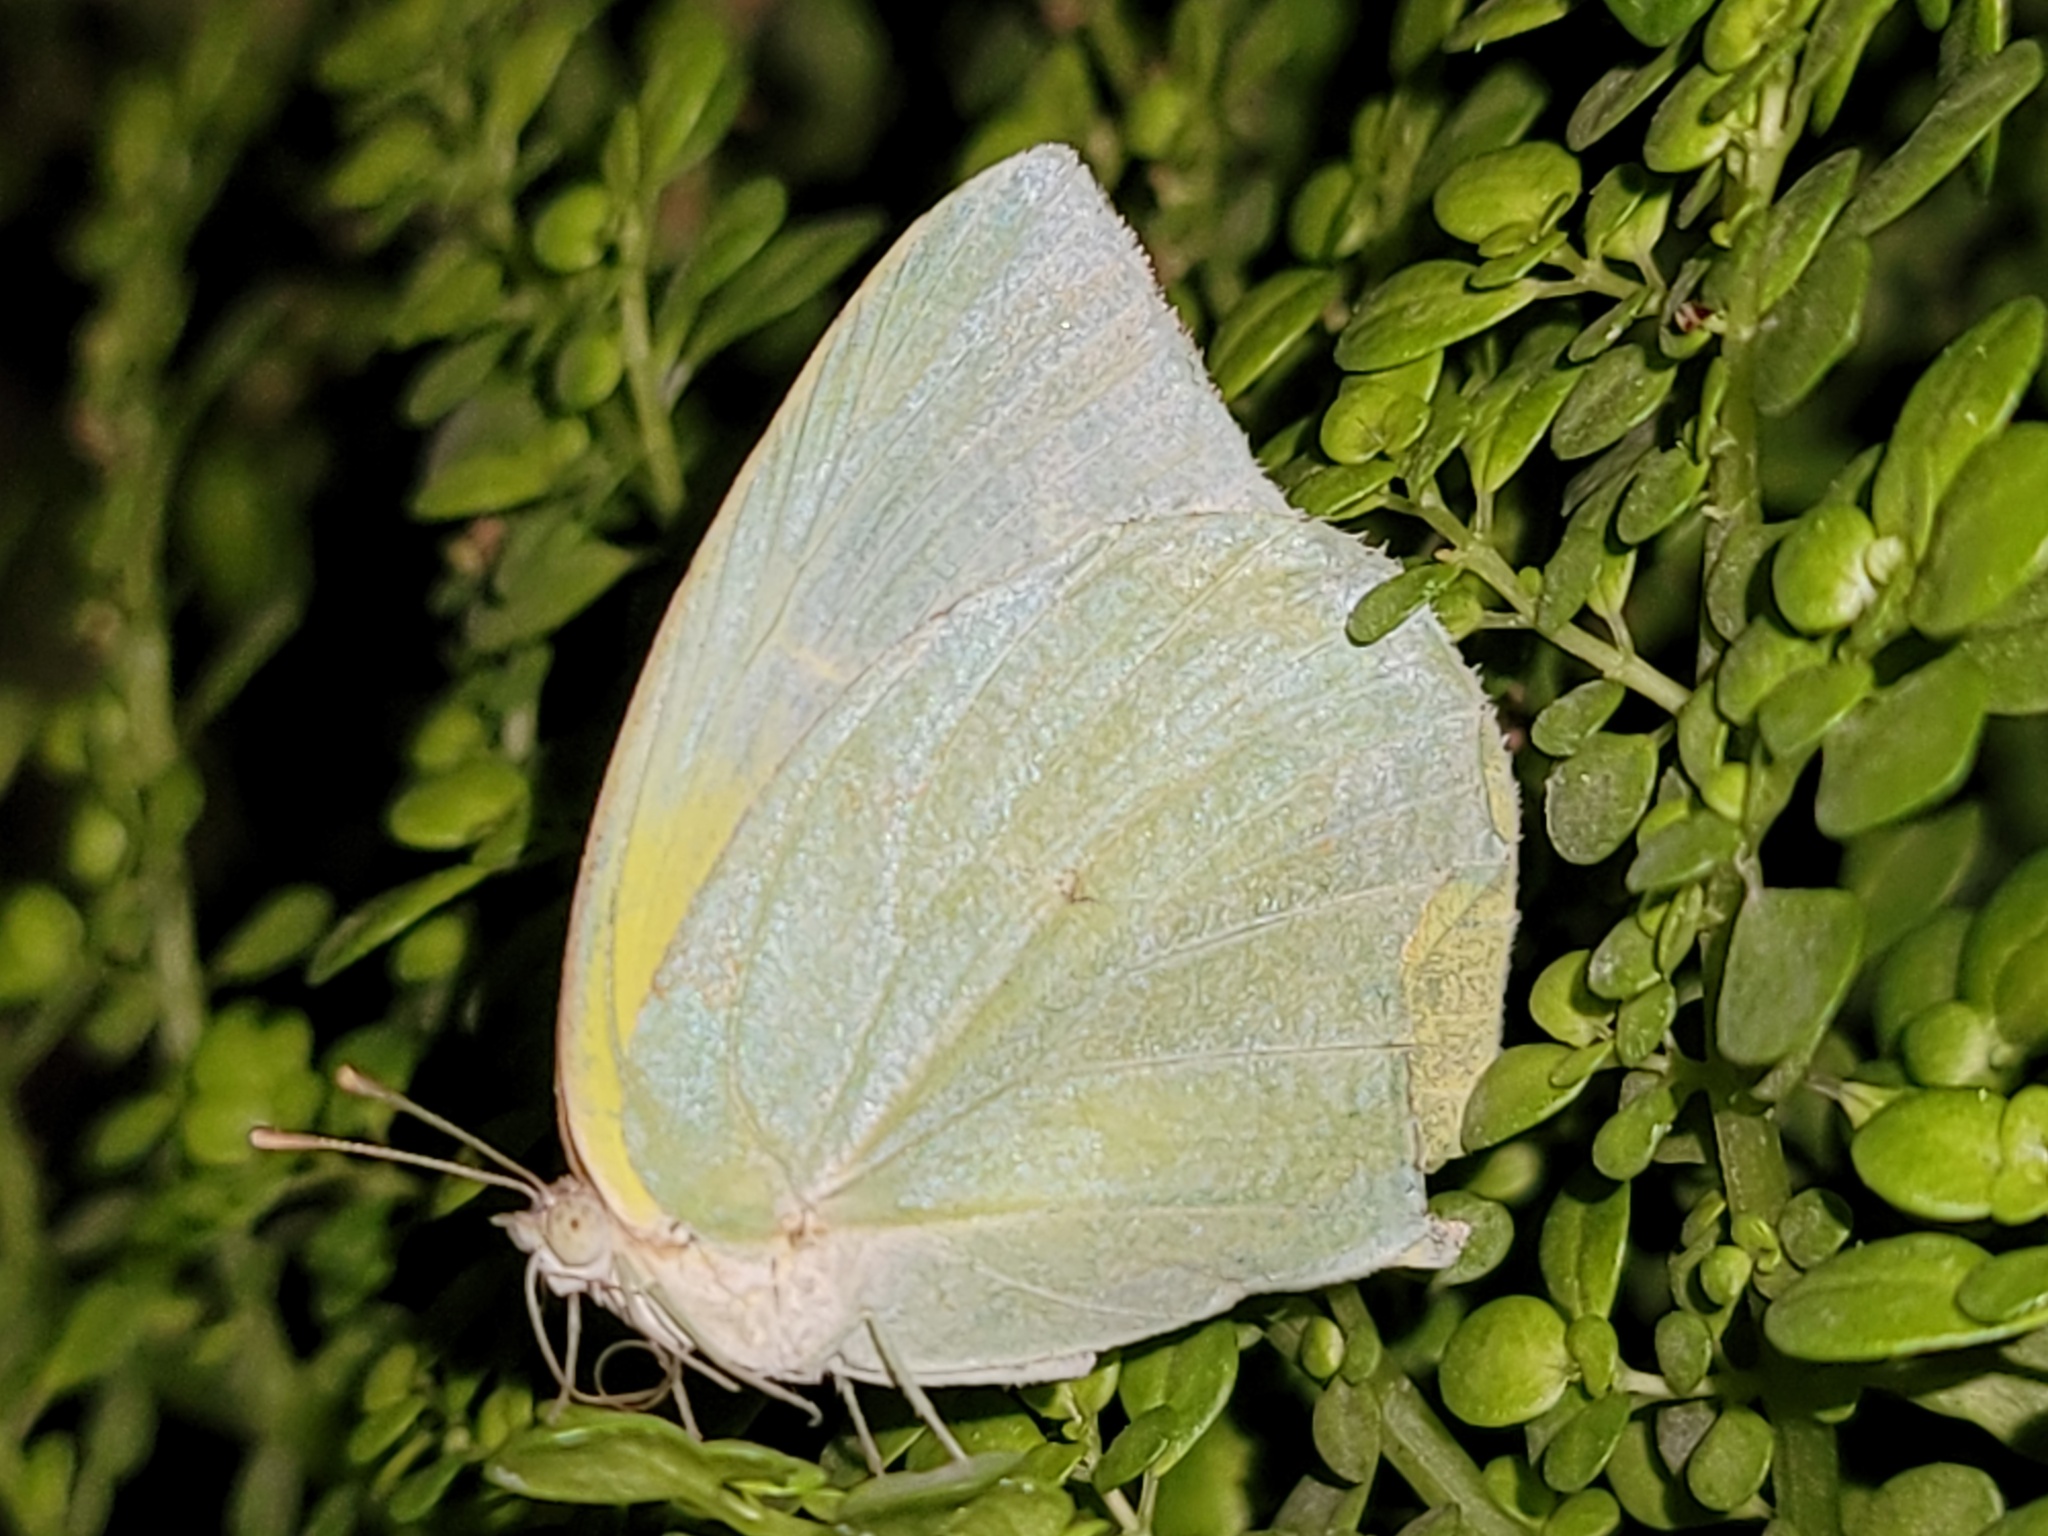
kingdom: Animalia
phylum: Arthropoda
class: Insecta
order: Lepidoptera
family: Pieridae
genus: Kricogonia
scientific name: Kricogonia lyside
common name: Guayacan sulphur,
